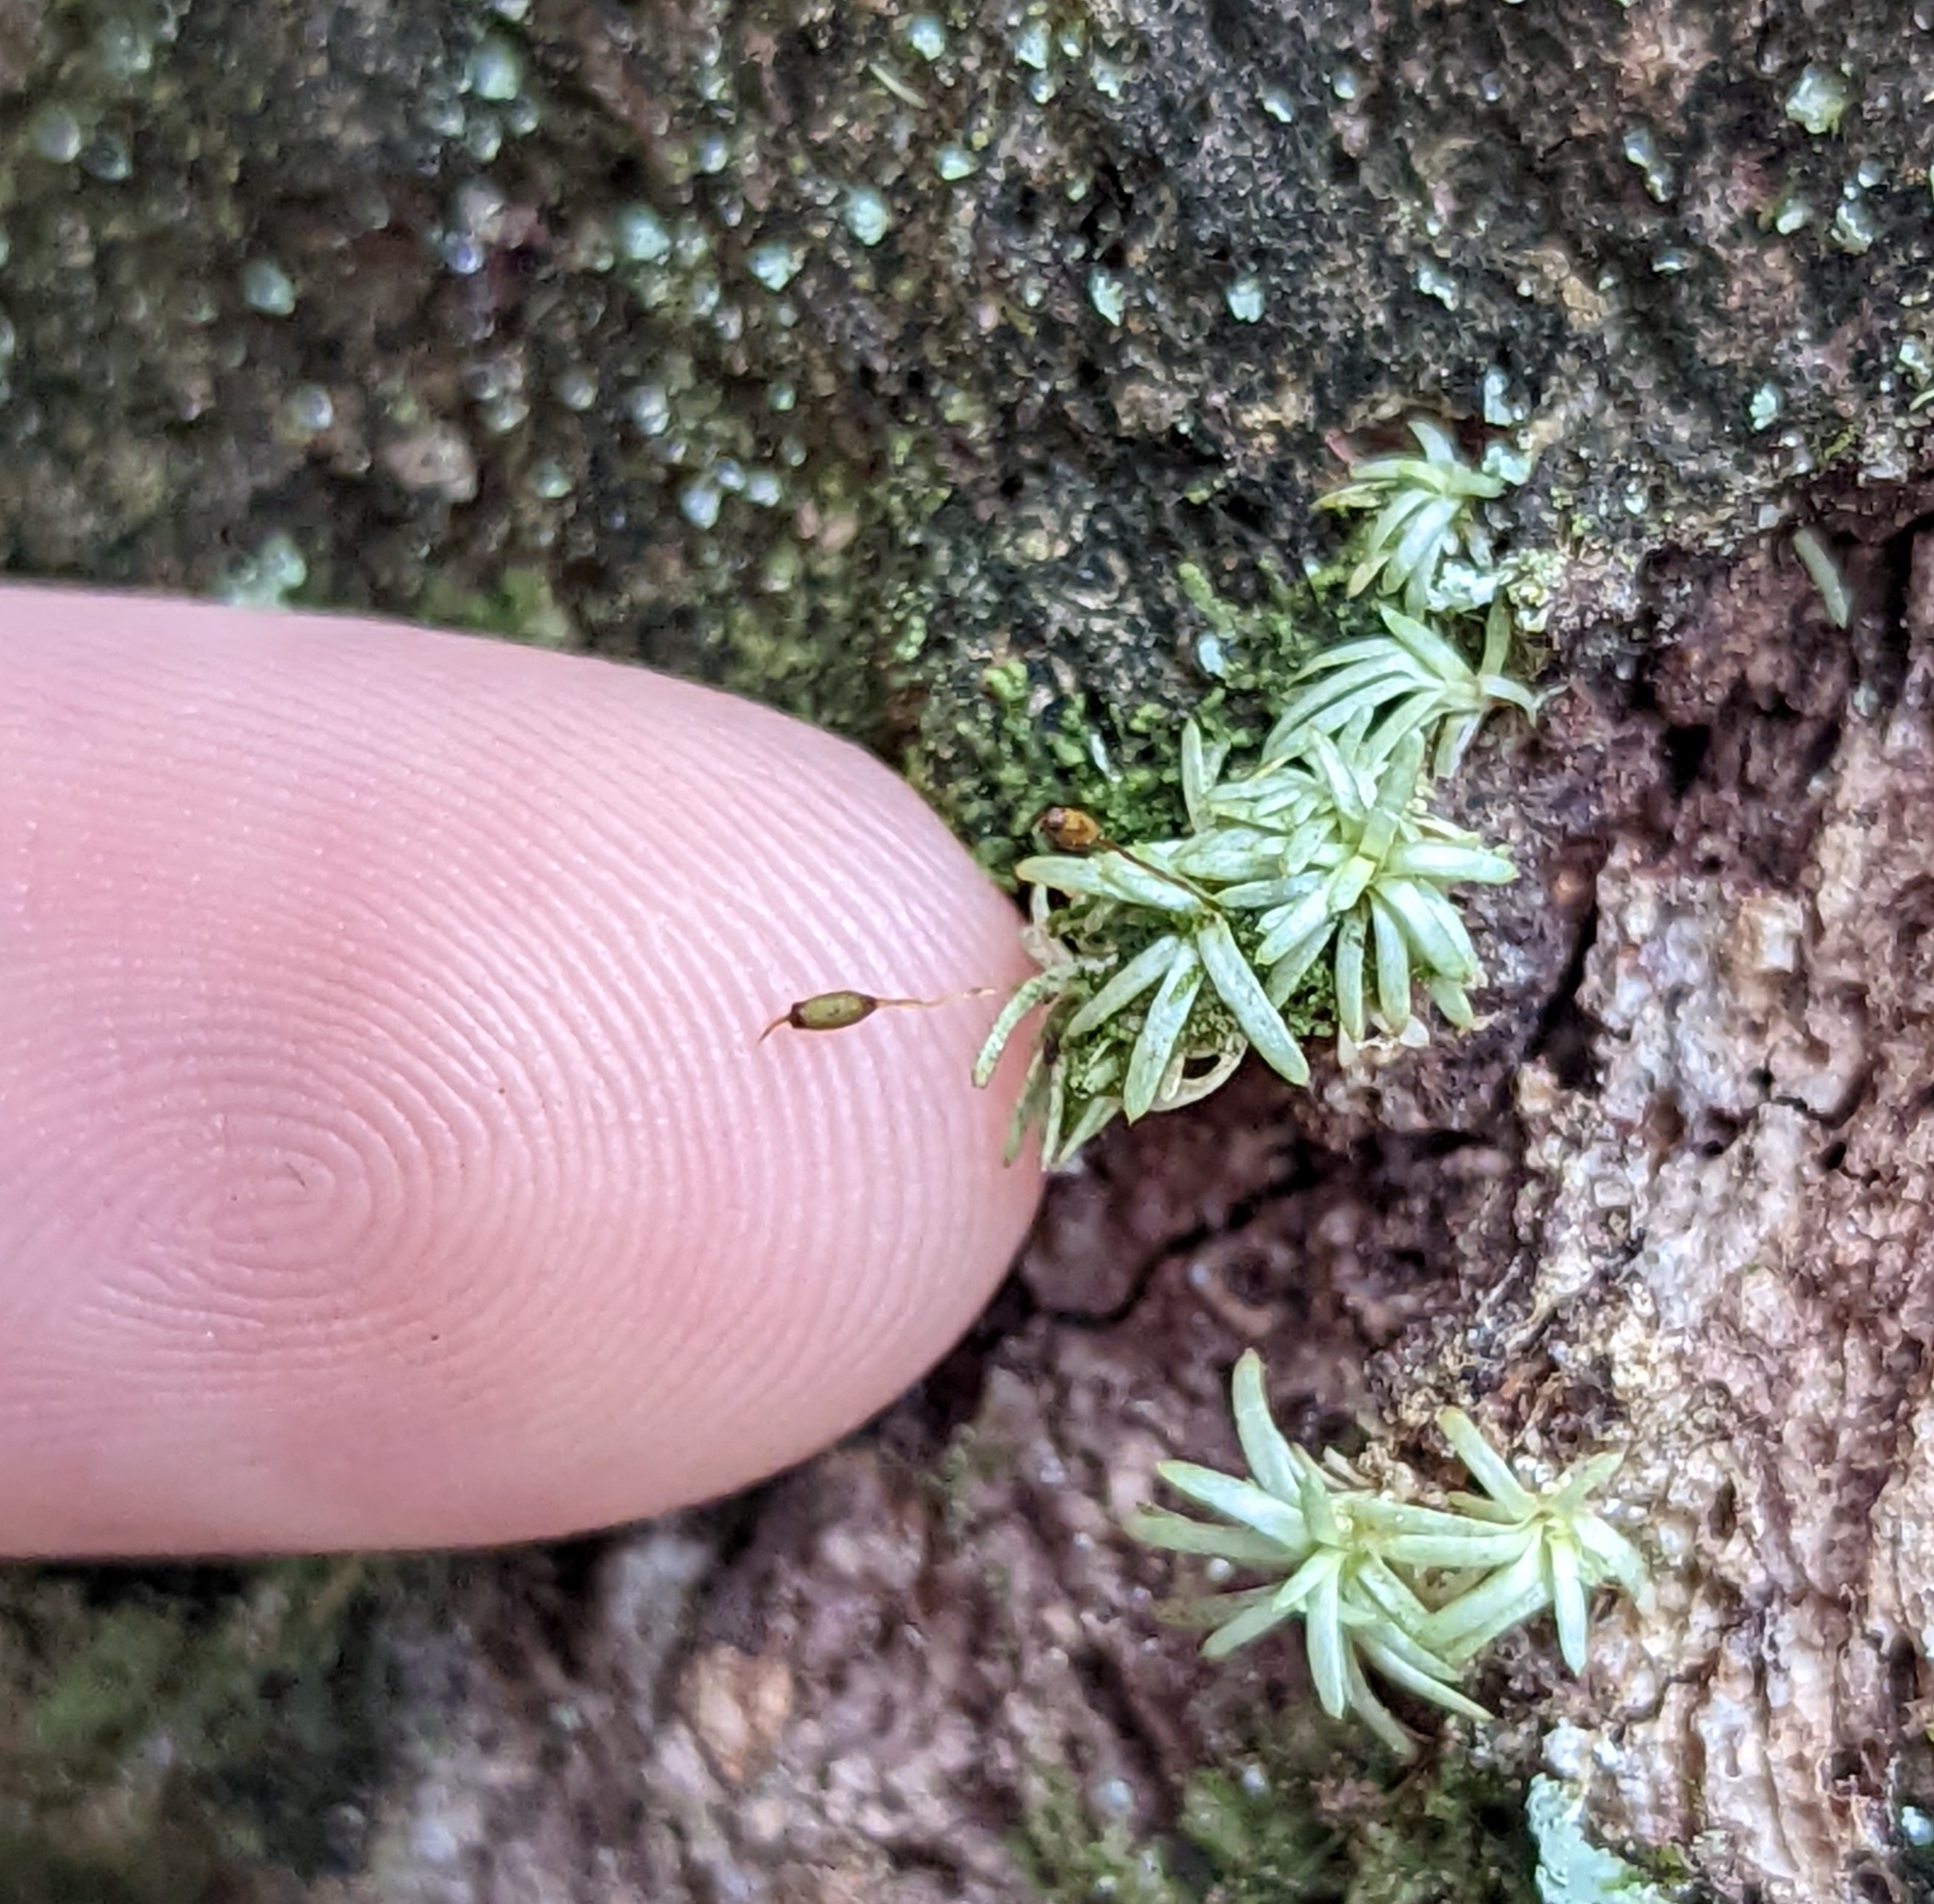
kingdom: Plantae
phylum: Bryophyta
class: Bryopsida
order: Dicranales
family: Octoblepharaceae
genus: Octoblepharum
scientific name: Octoblepharum albidum
